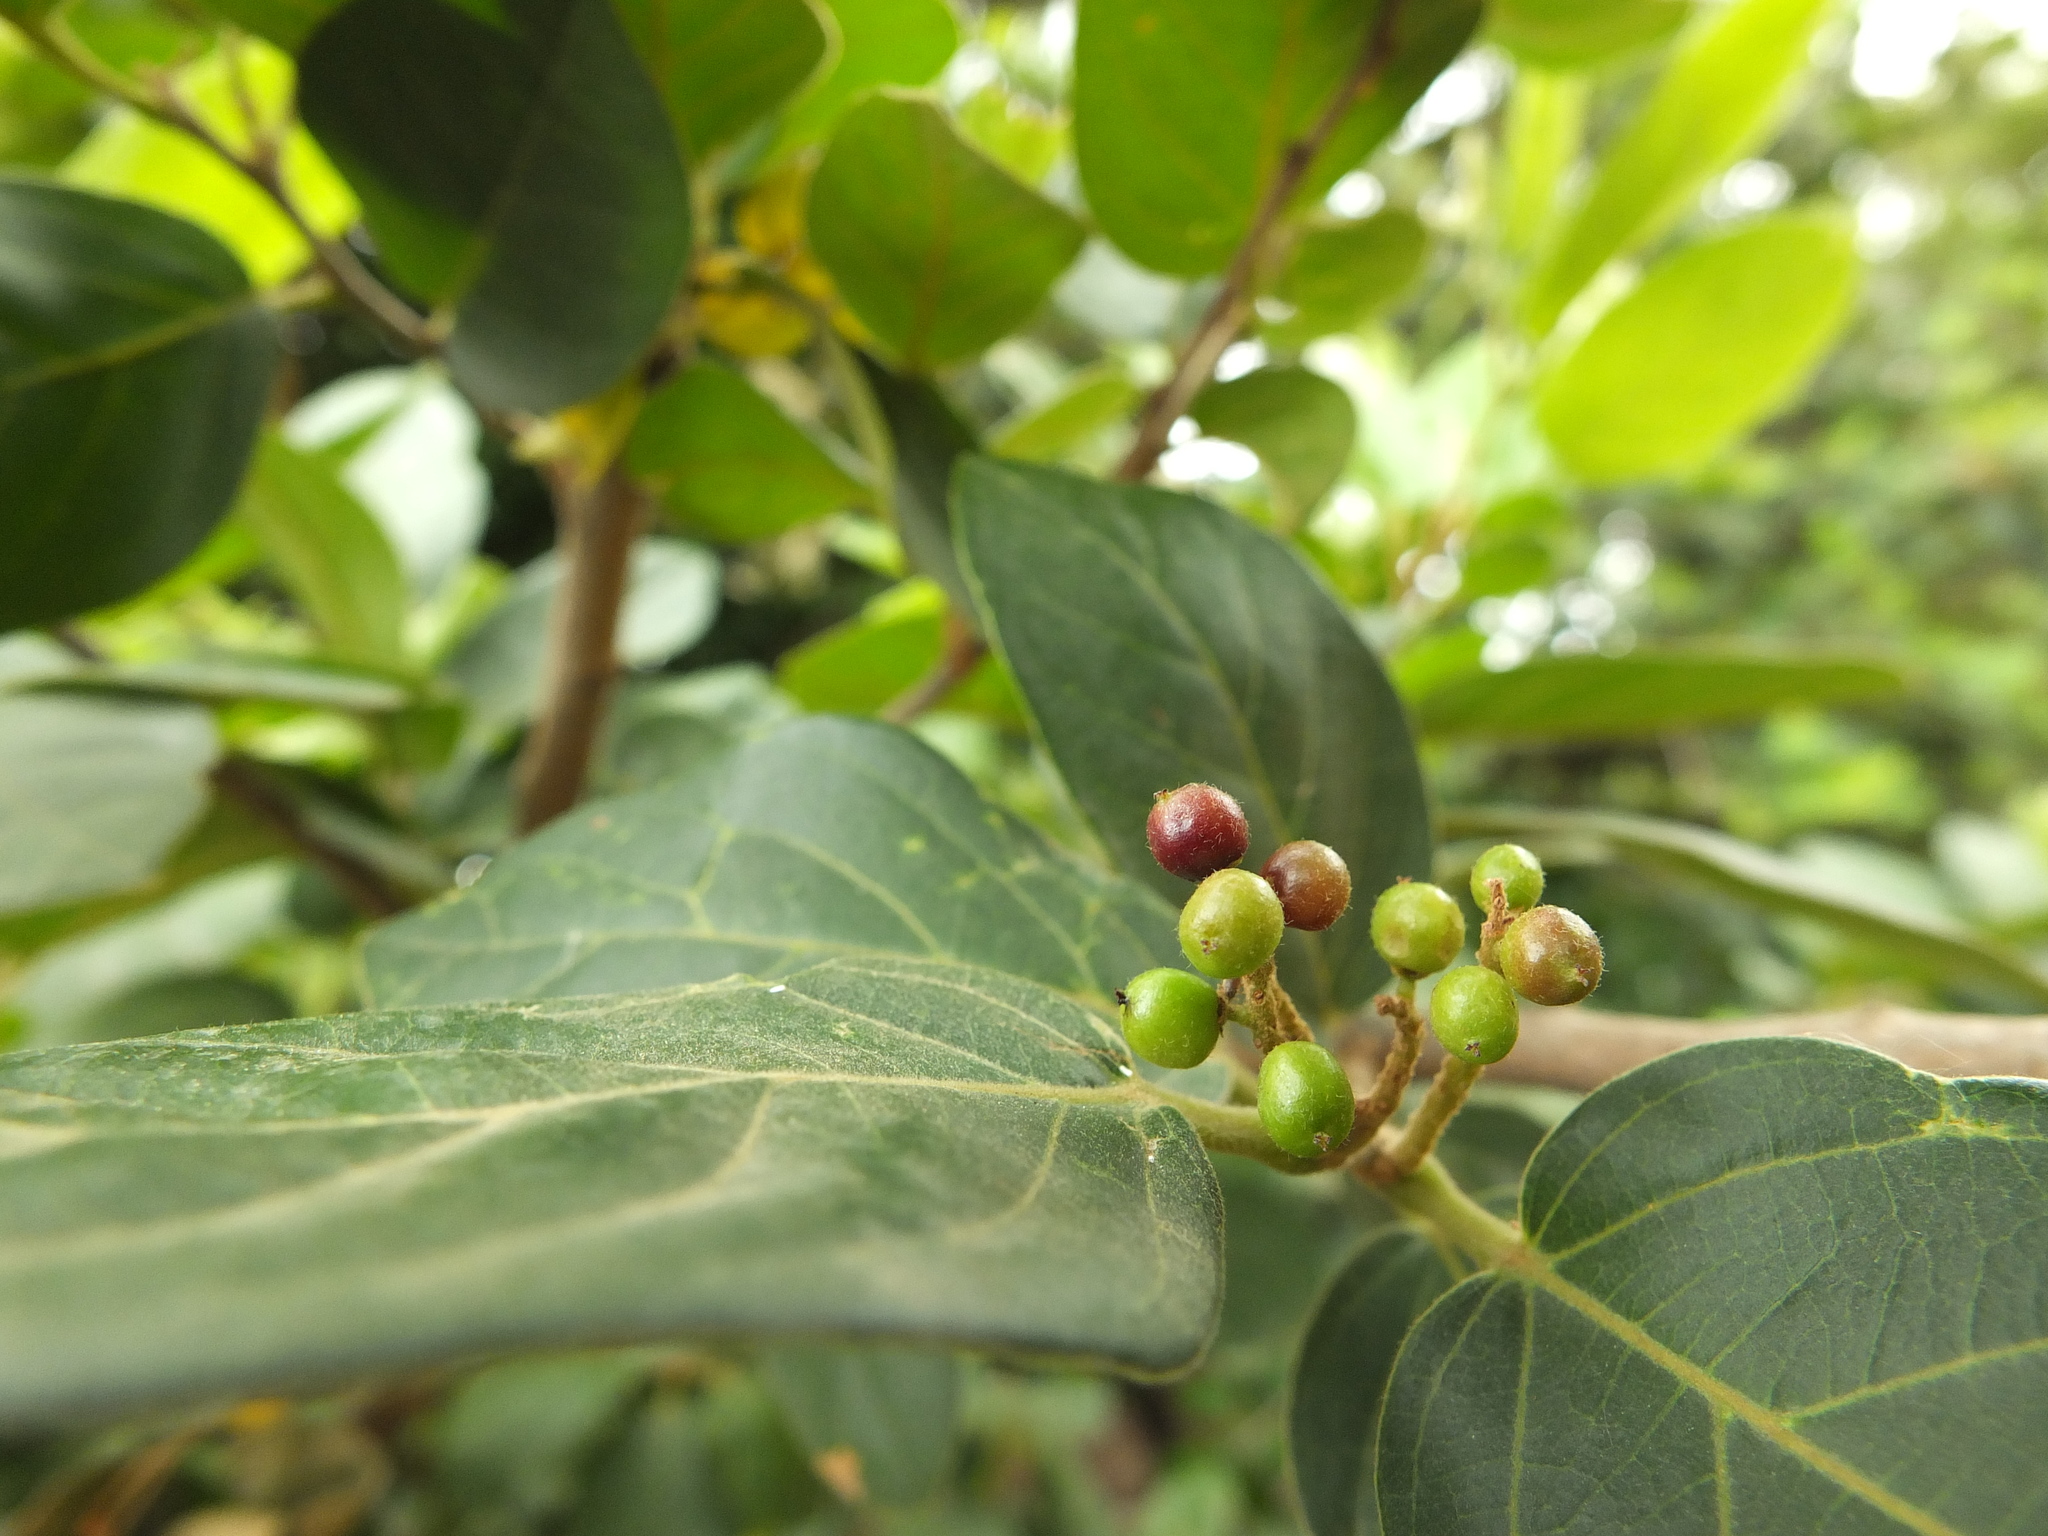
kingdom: Plantae
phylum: Tracheophyta
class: Magnoliopsida
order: Malpighiales
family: Phyllanthaceae
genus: Antidesma
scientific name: Antidesma ghaesembilla
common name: Black currant-tree
